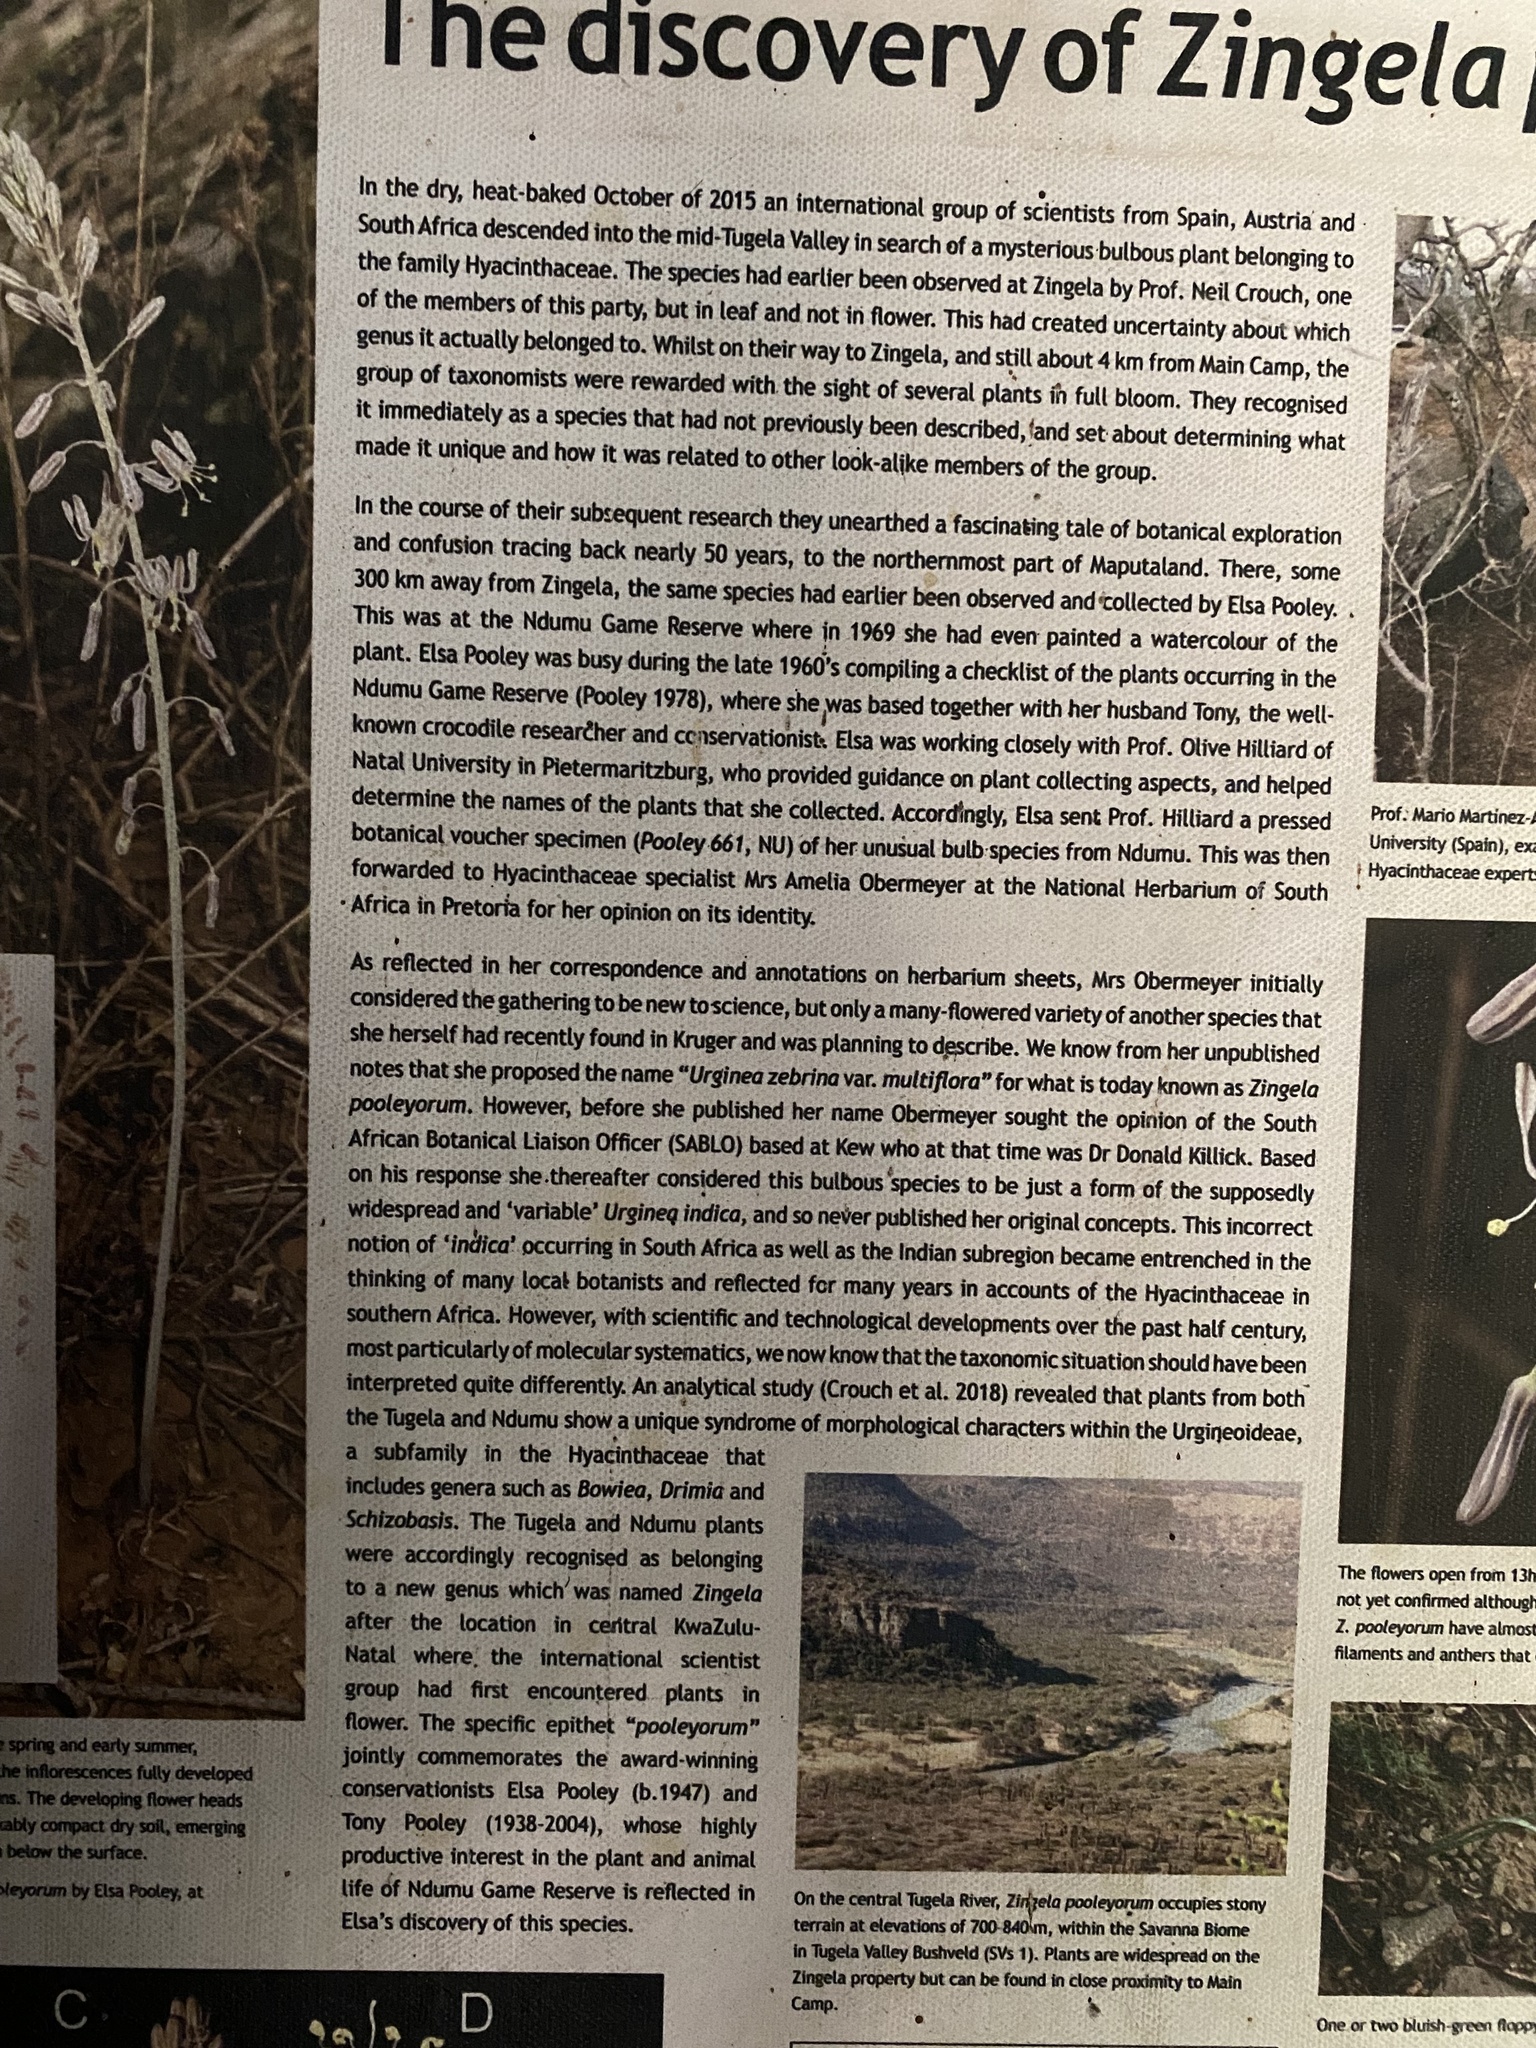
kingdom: Plantae
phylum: Tracheophyta
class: Liliopsida
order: Asparagales
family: Asparagaceae
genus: Zingela
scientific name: Zingela pooleyorum
